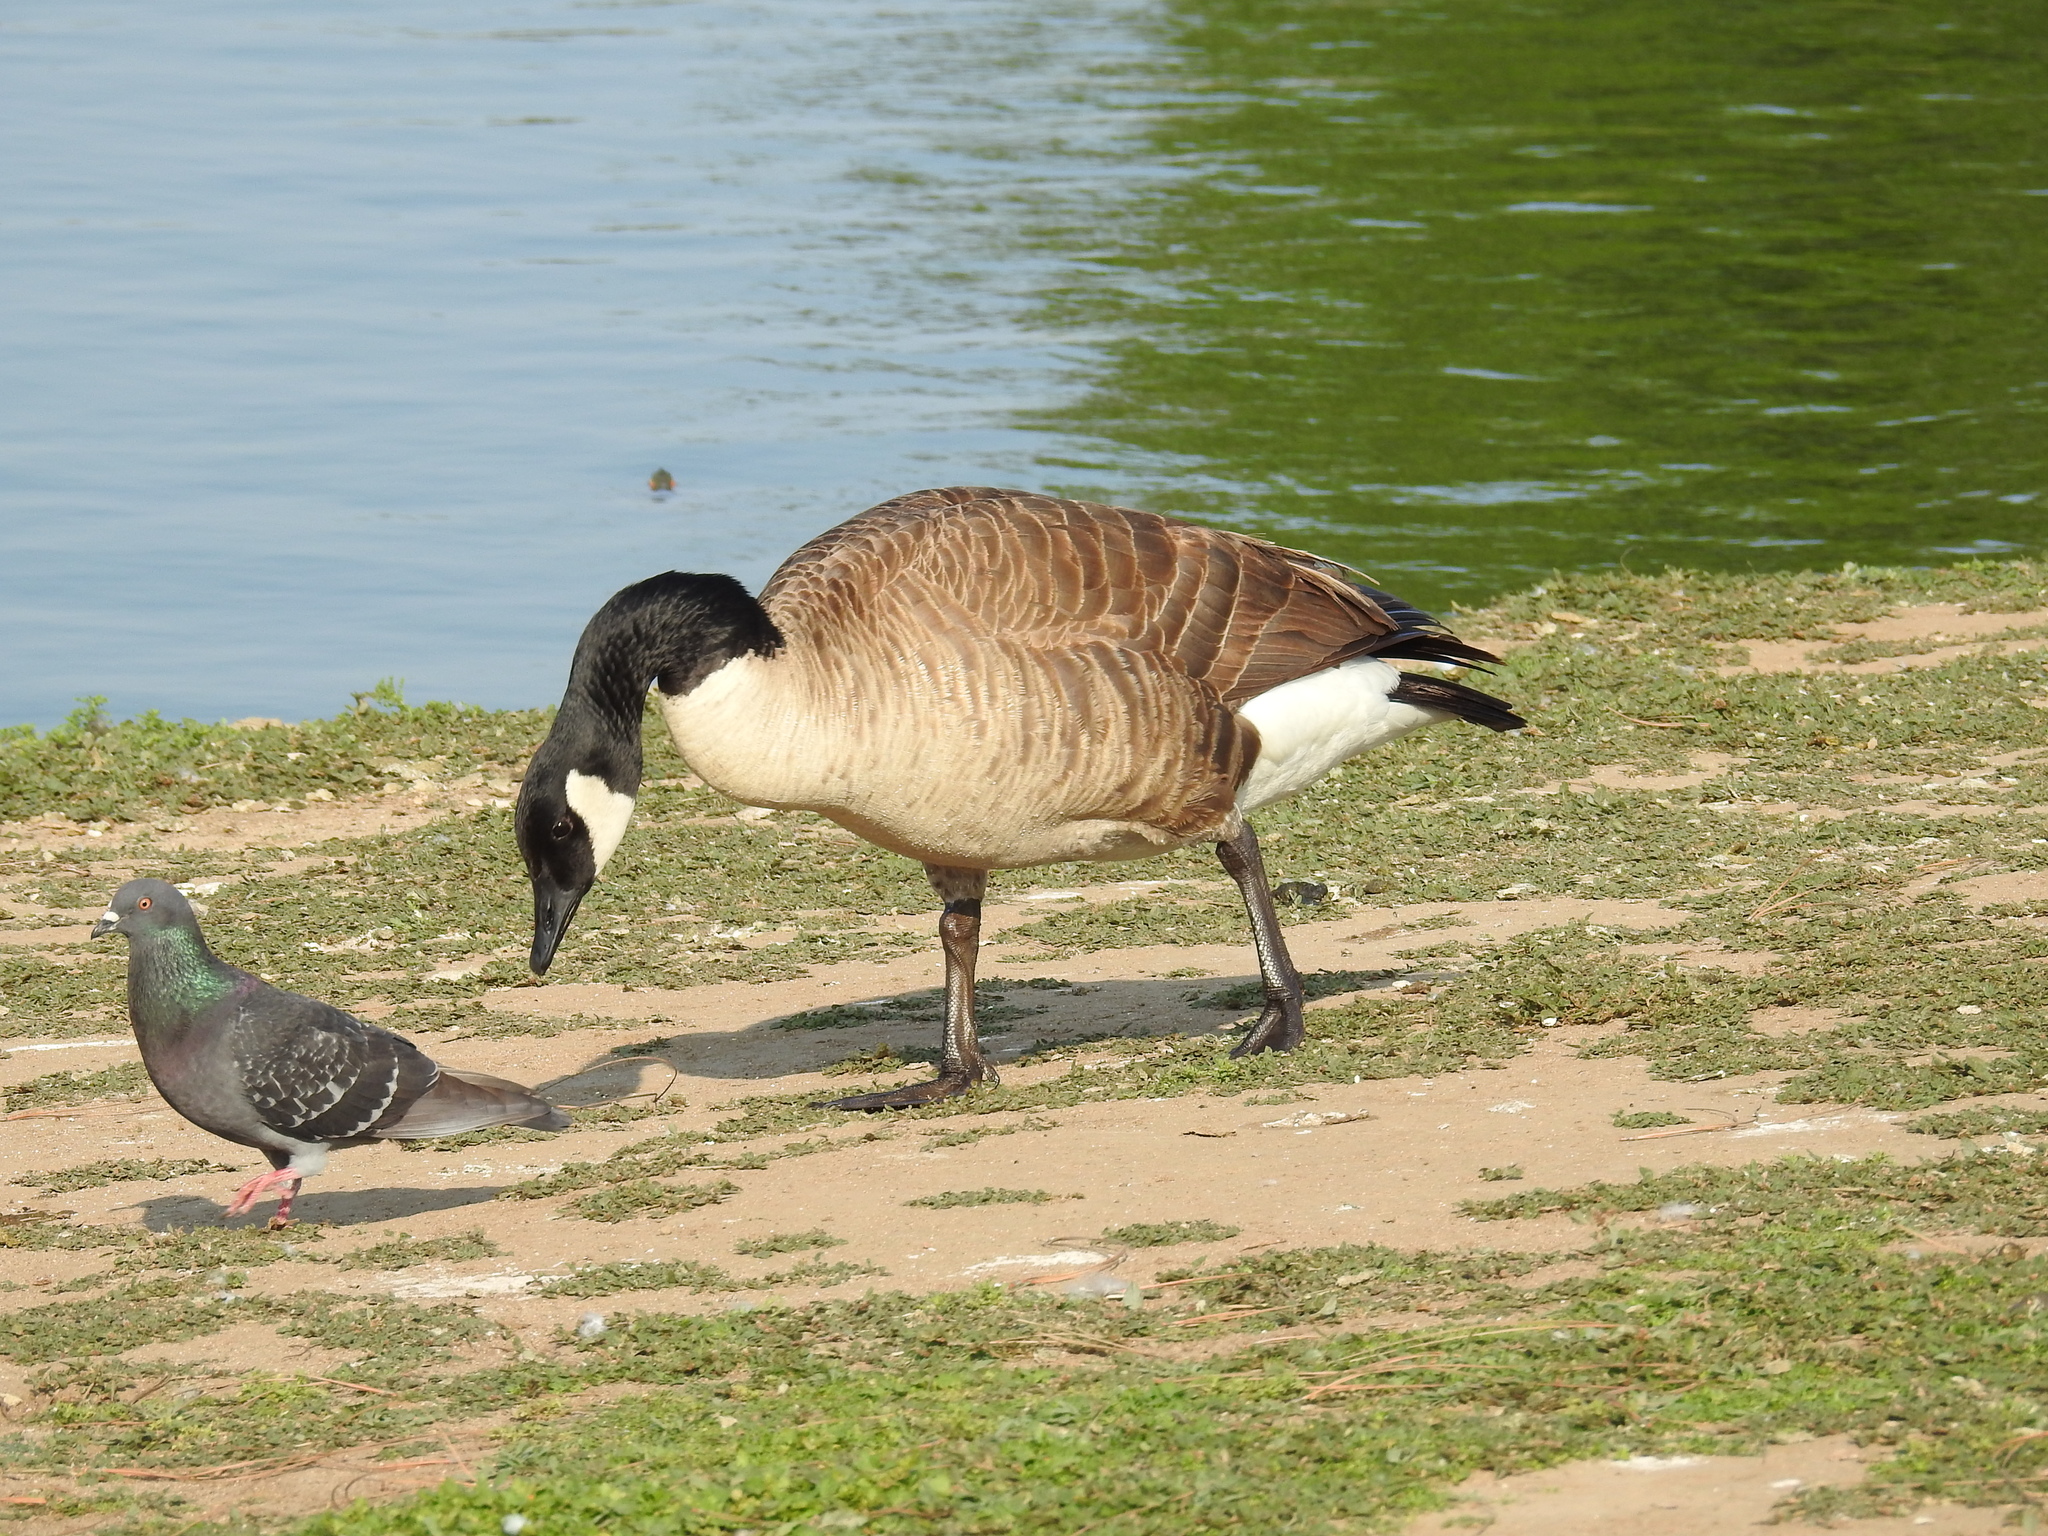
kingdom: Animalia
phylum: Chordata
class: Aves
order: Anseriformes
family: Anatidae
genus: Branta
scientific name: Branta canadensis
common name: Canada goose
